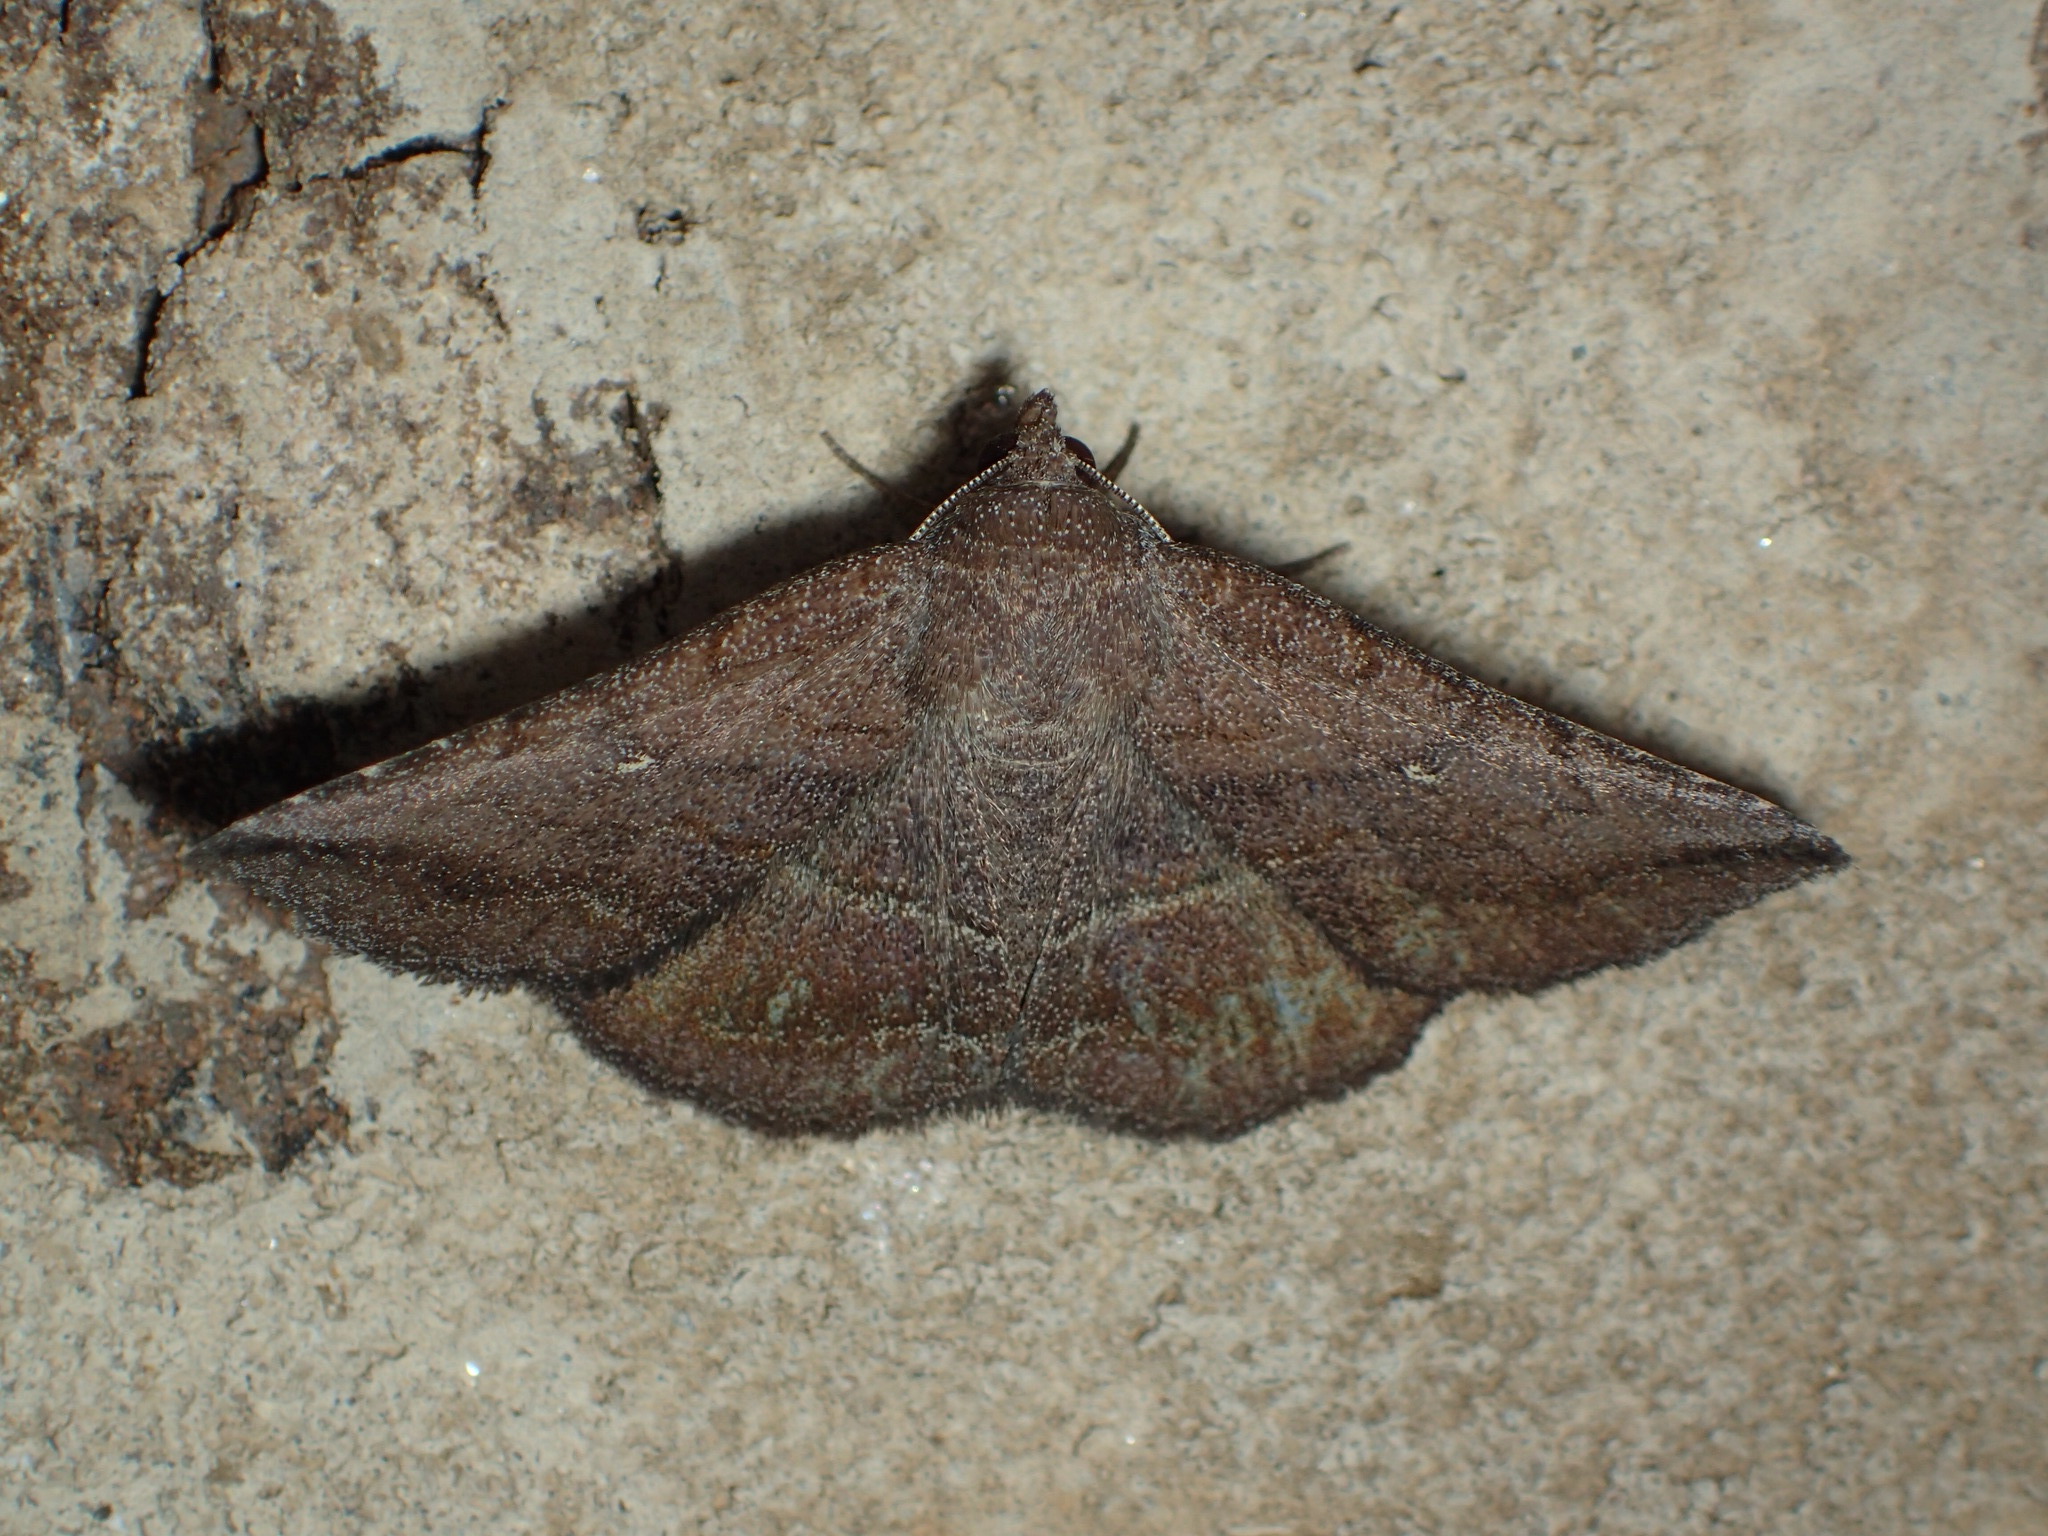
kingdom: Animalia
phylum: Arthropoda
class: Insecta
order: Lepidoptera
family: Erebidae
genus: Lesmone
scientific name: Lesmone detrahens
